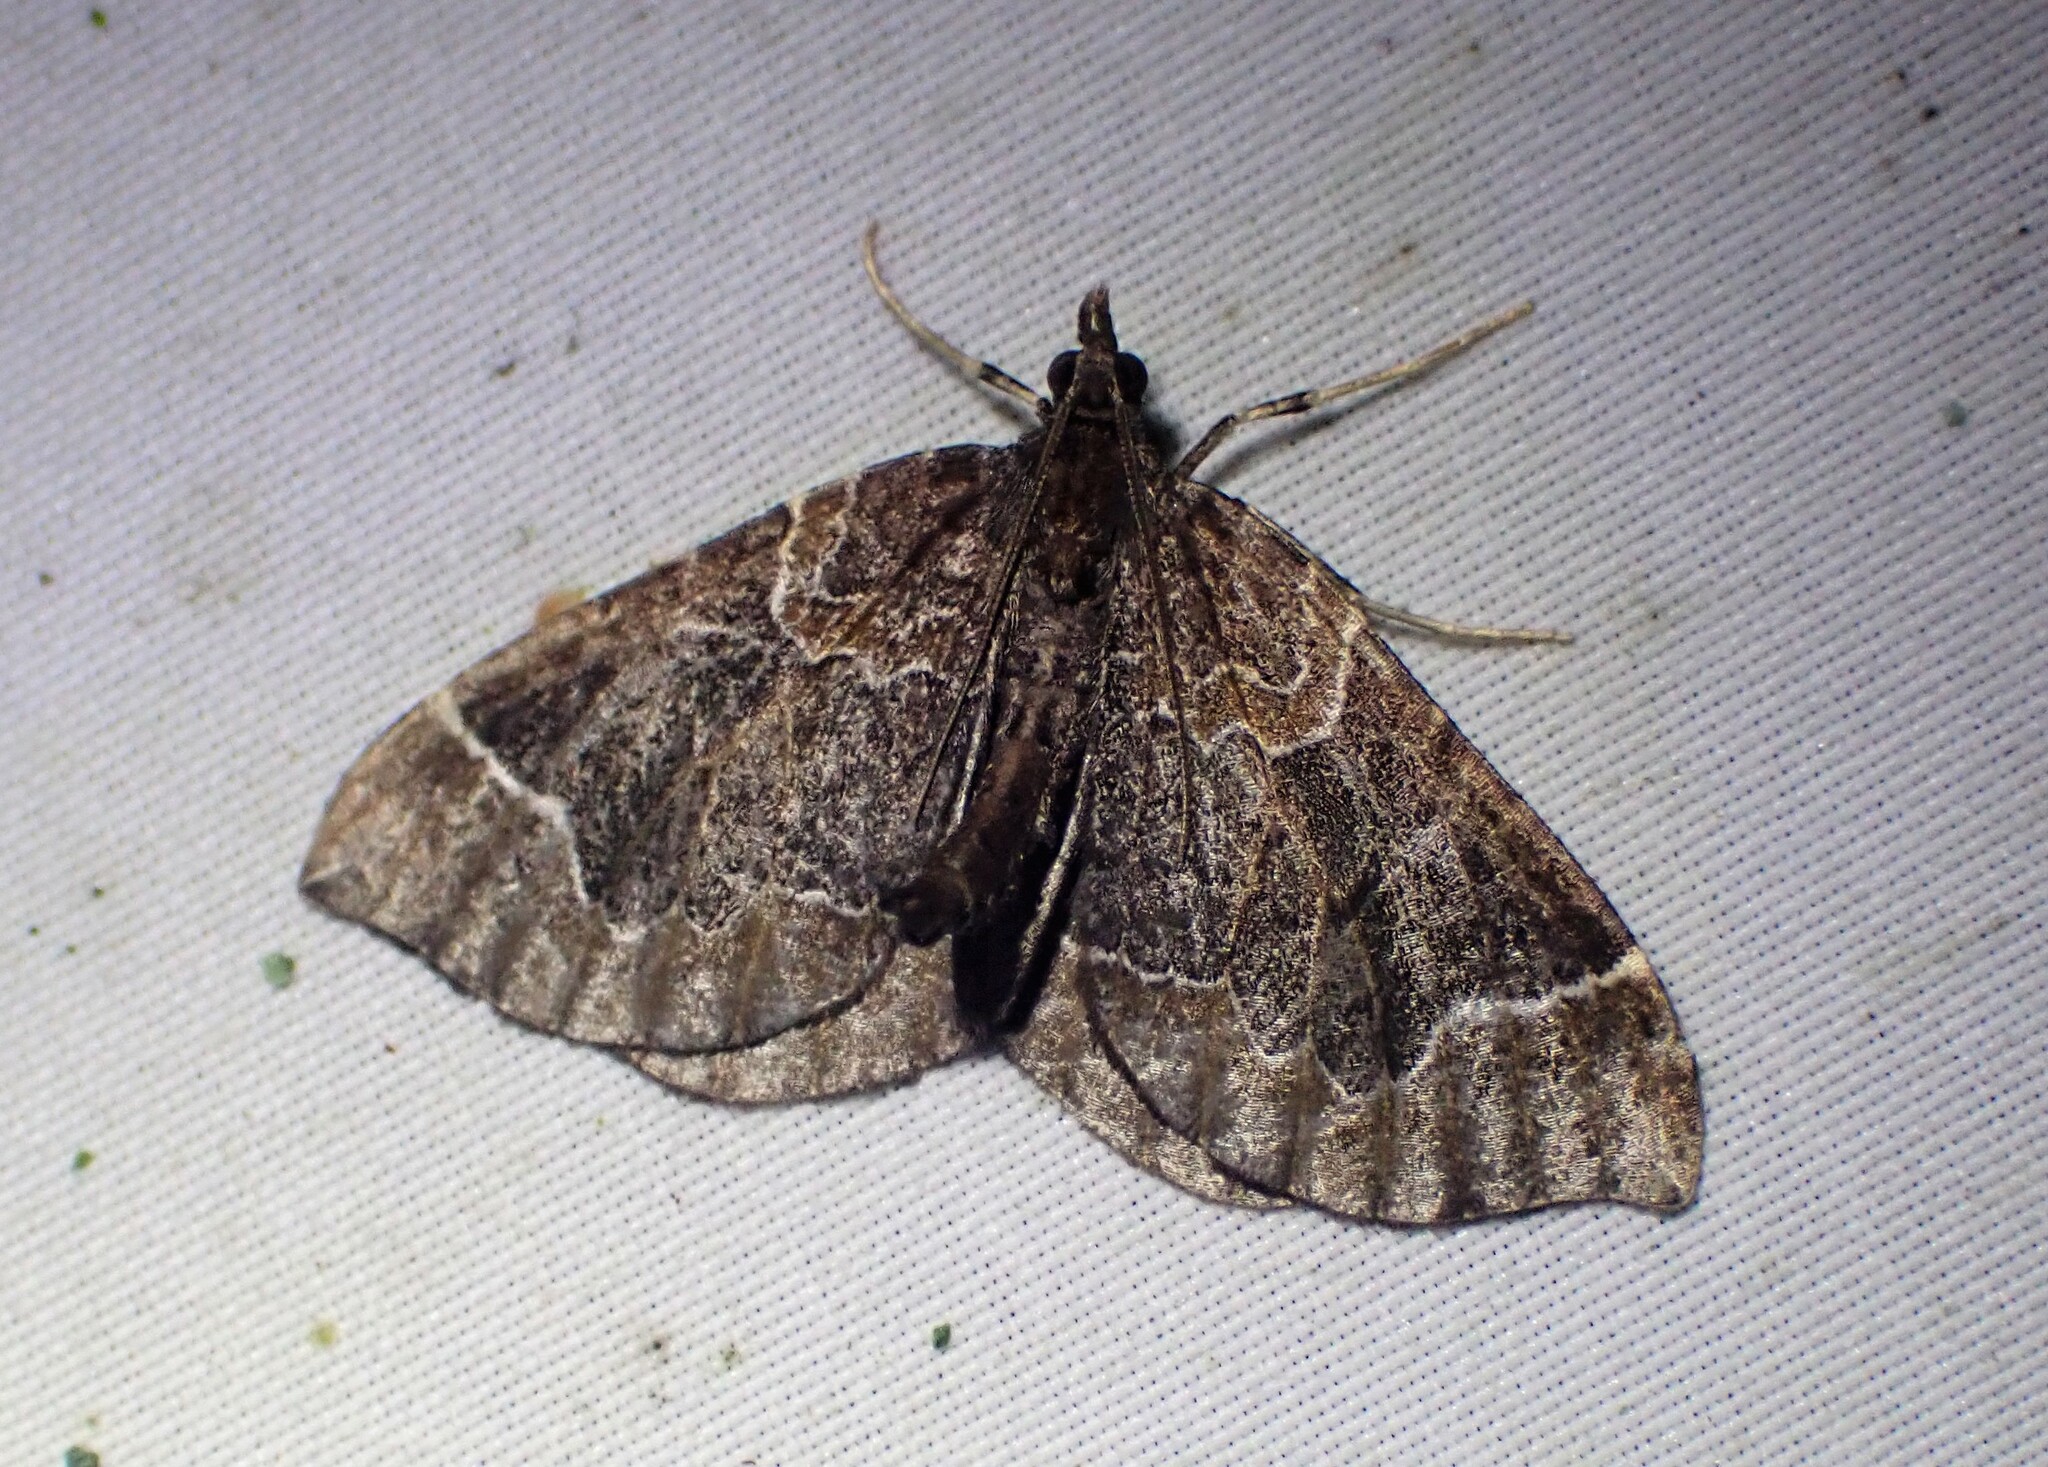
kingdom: Animalia
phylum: Arthropoda
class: Insecta
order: Lepidoptera
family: Geometridae
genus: Eulithis
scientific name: Eulithis flavibrunneata
